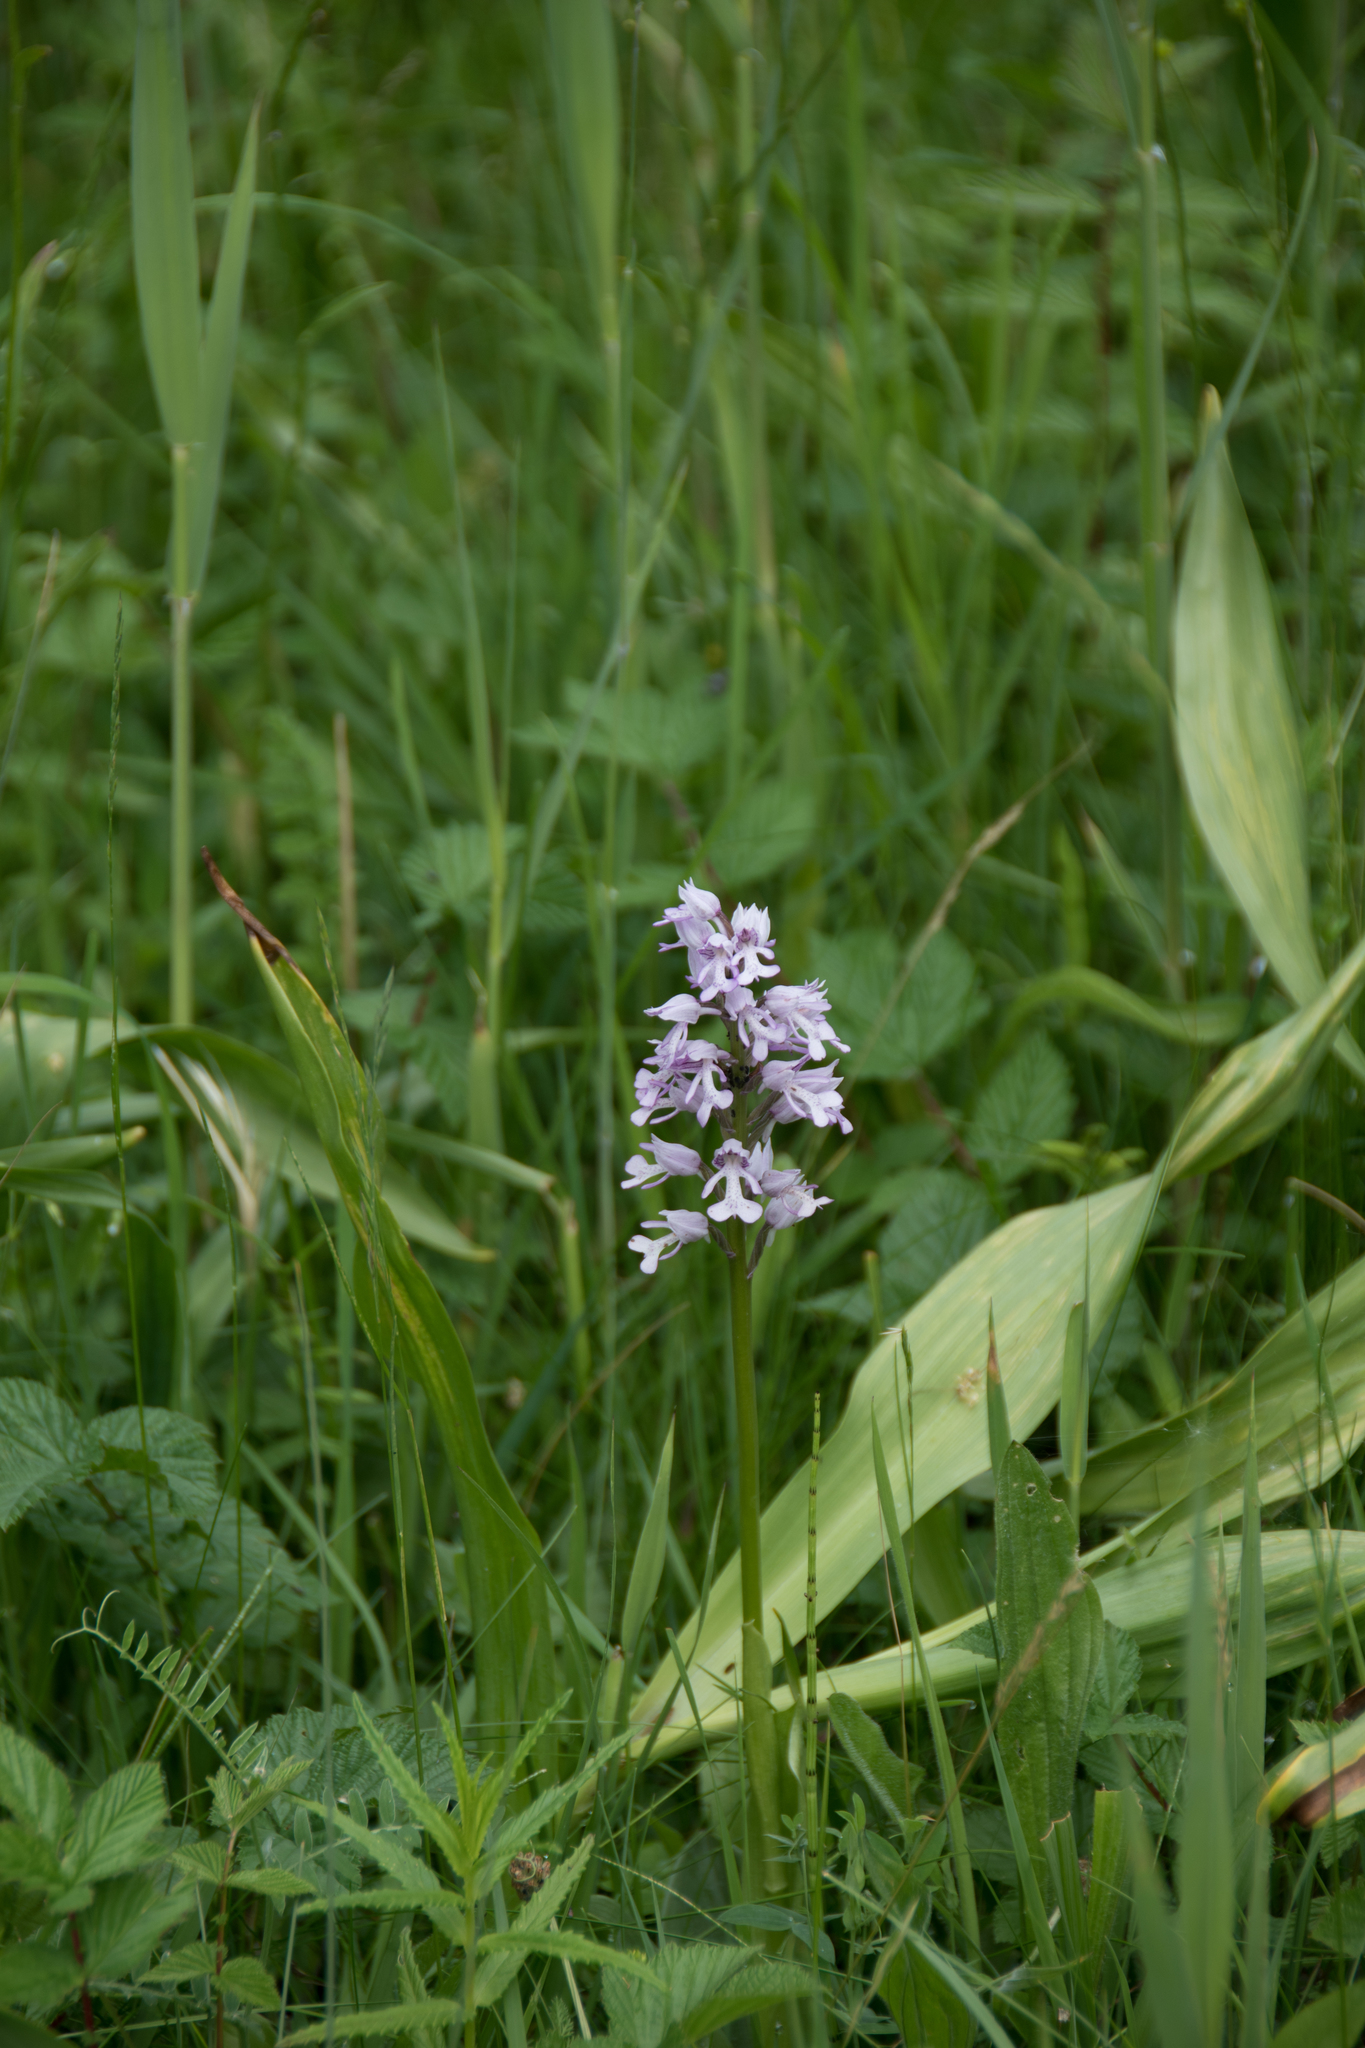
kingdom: Plantae
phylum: Tracheophyta
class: Liliopsida
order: Asparagales
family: Orchidaceae
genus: Orchis
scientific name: Orchis militaris
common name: Military orchid
